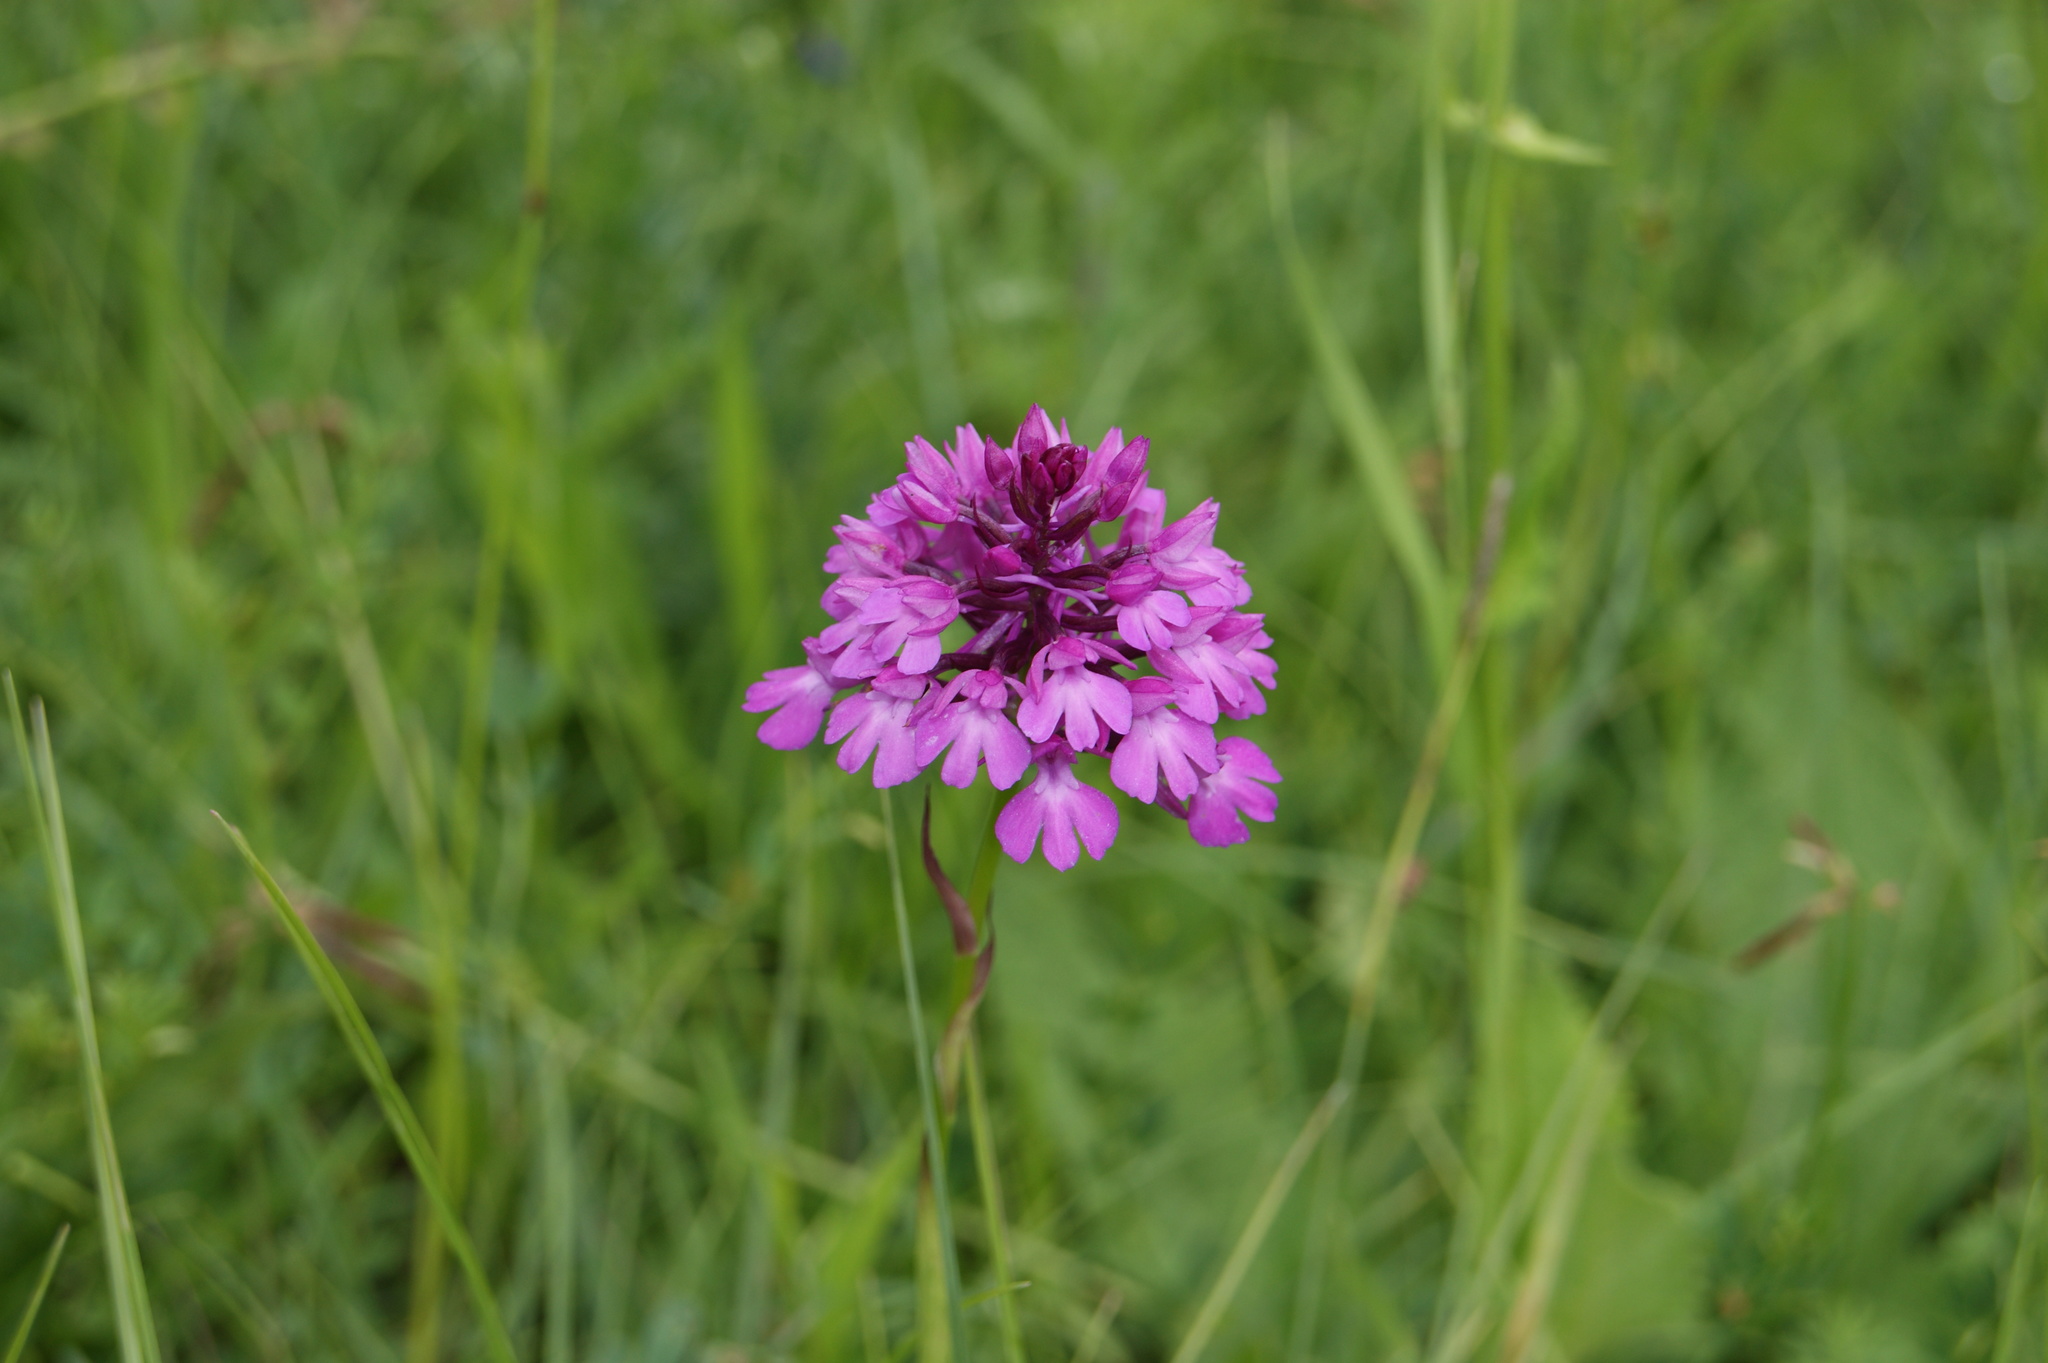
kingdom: Plantae
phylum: Tracheophyta
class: Liliopsida
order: Asparagales
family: Orchidaceae
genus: Anacamptis
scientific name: Anacamptis pyramidalis
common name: Pyramidal orchid
